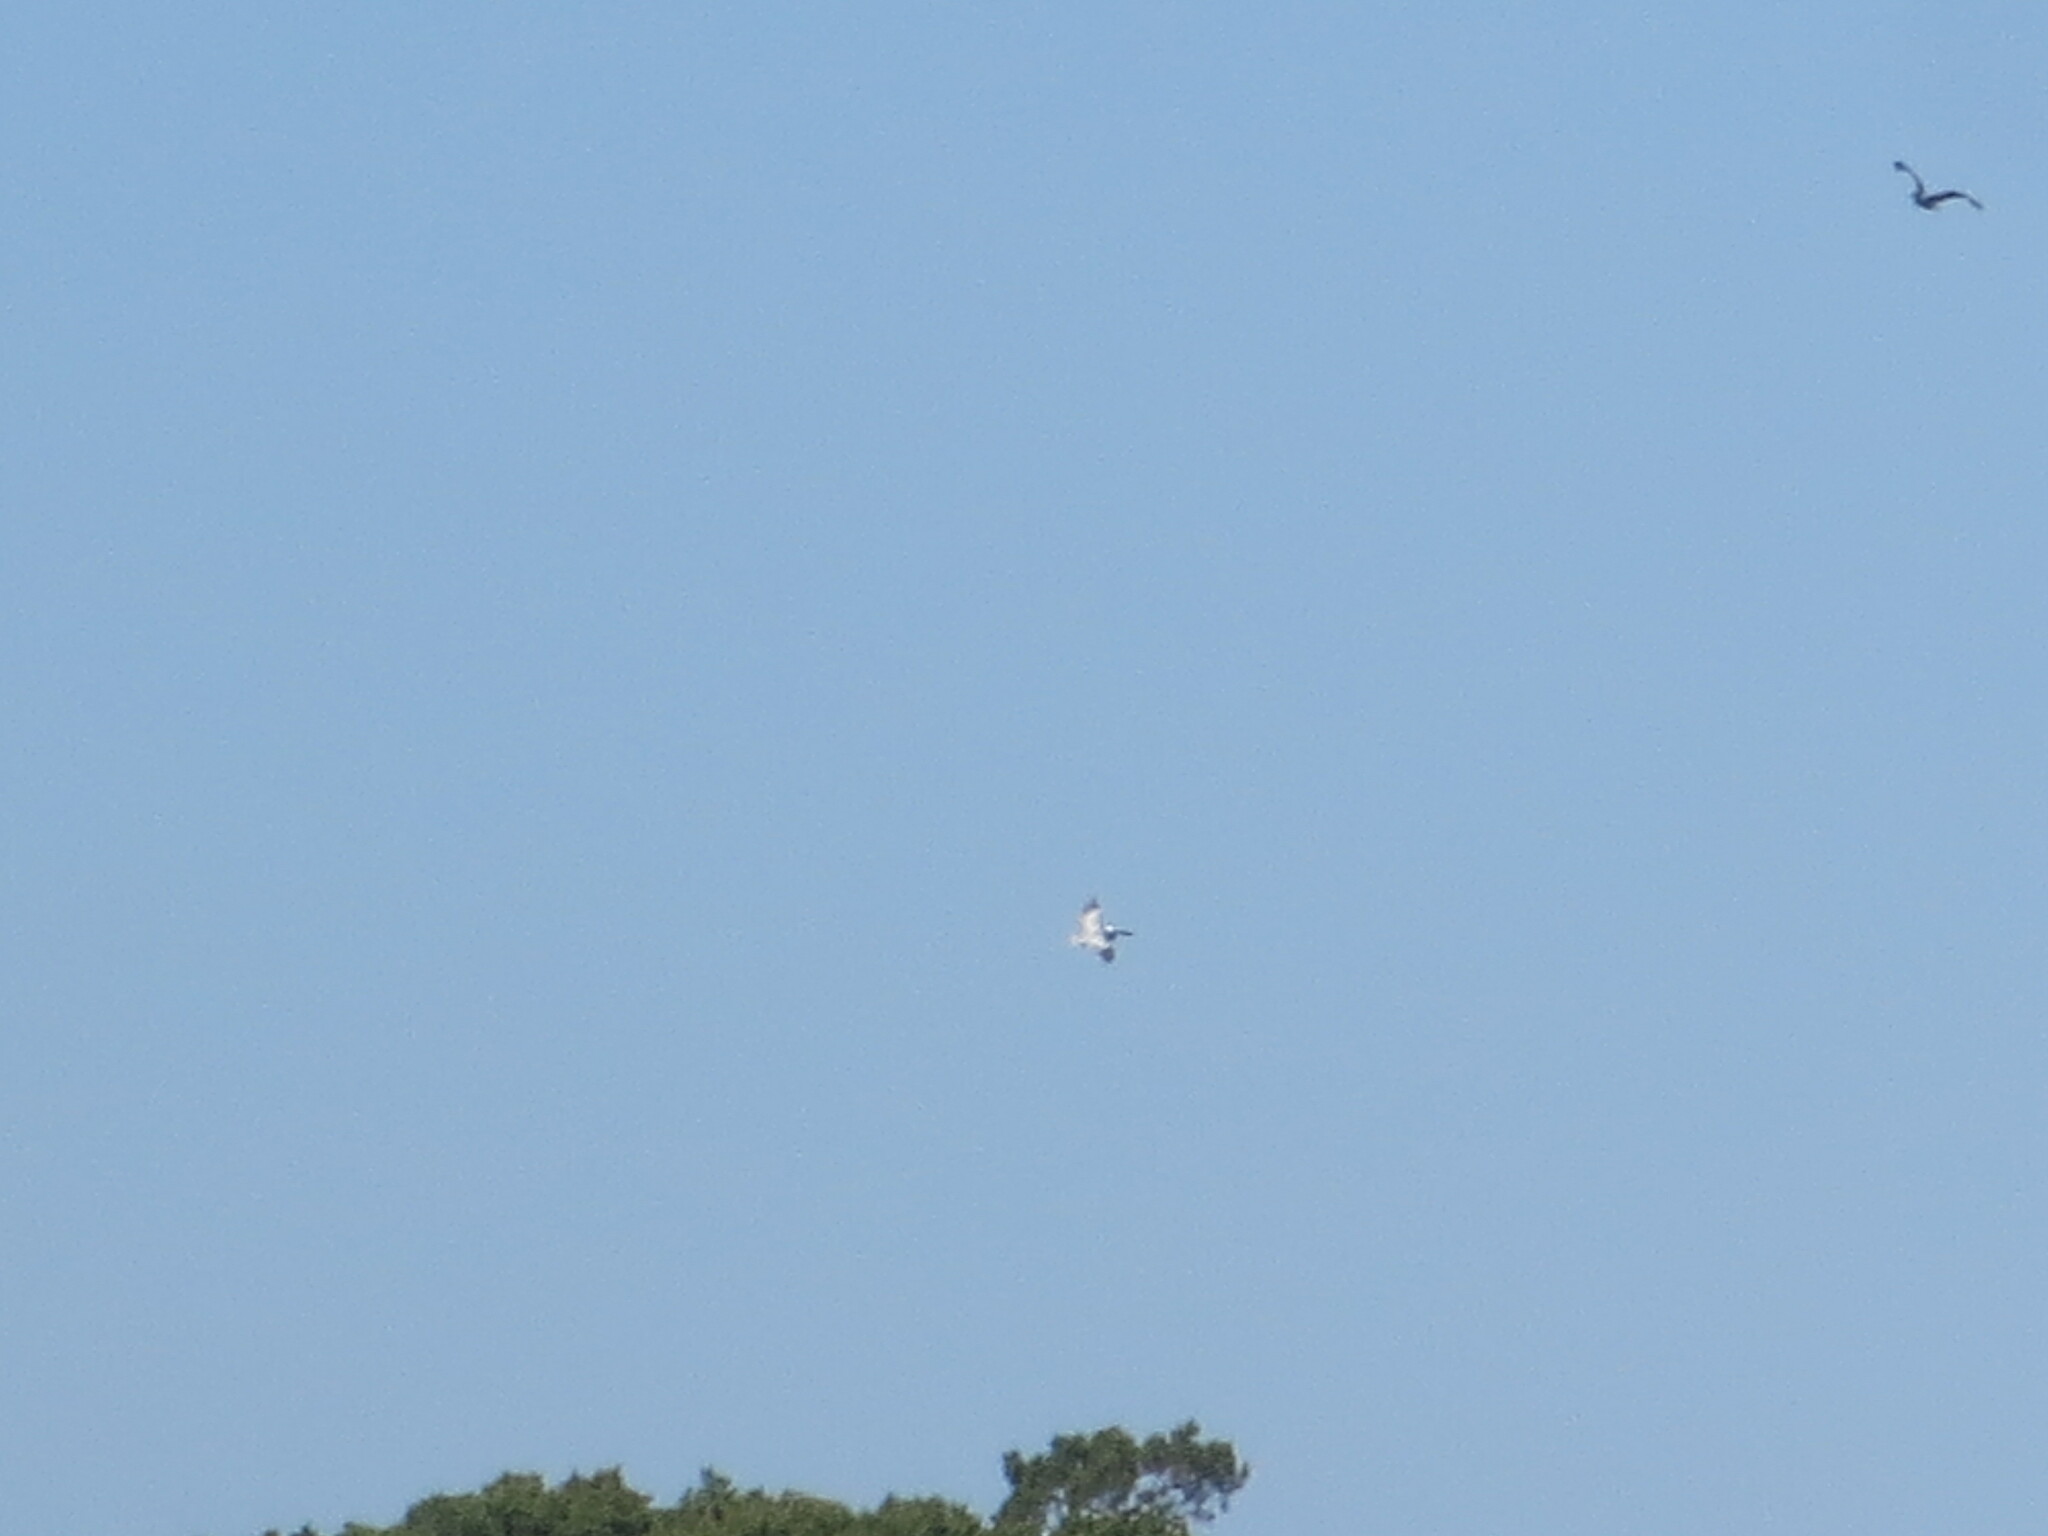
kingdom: Animalia
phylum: Chordata
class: Aves
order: Pelecaniformes
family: Pelecanidae
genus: Pelecanus
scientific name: Pelecanus occidentalis
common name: Brown pelican
